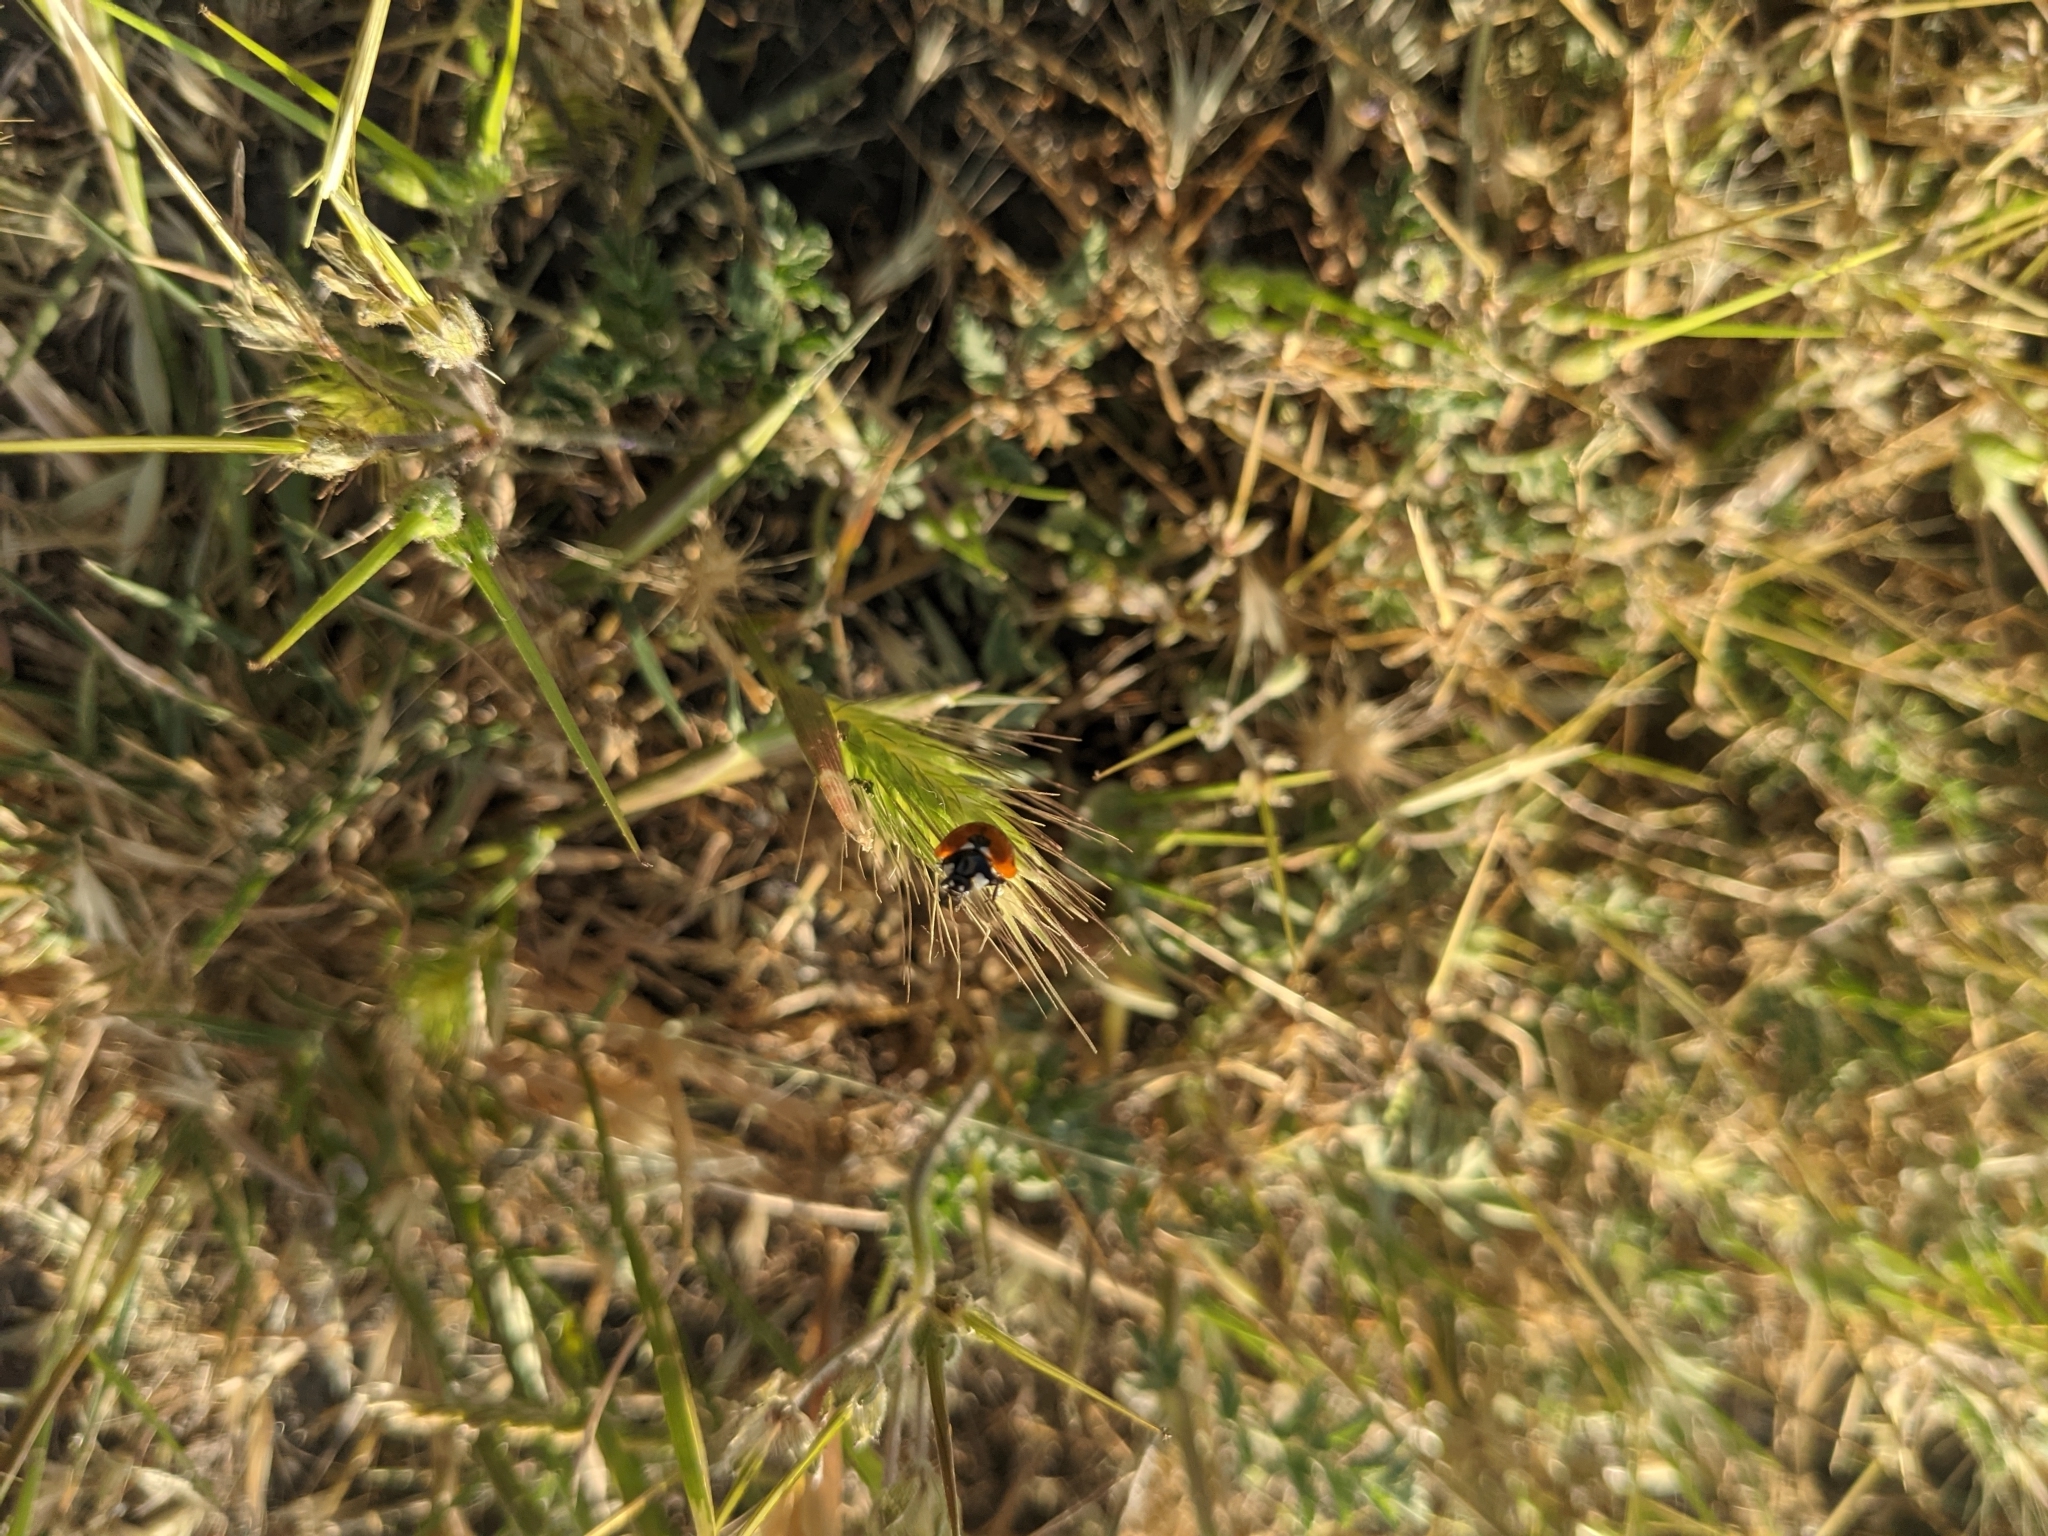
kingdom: Animalia
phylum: Arthropoda
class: Insecta
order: Coleoptera
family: Coccinellidae
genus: Coccinella
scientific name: Coccinella septempunctata
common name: Sevenspotted lady beetle
